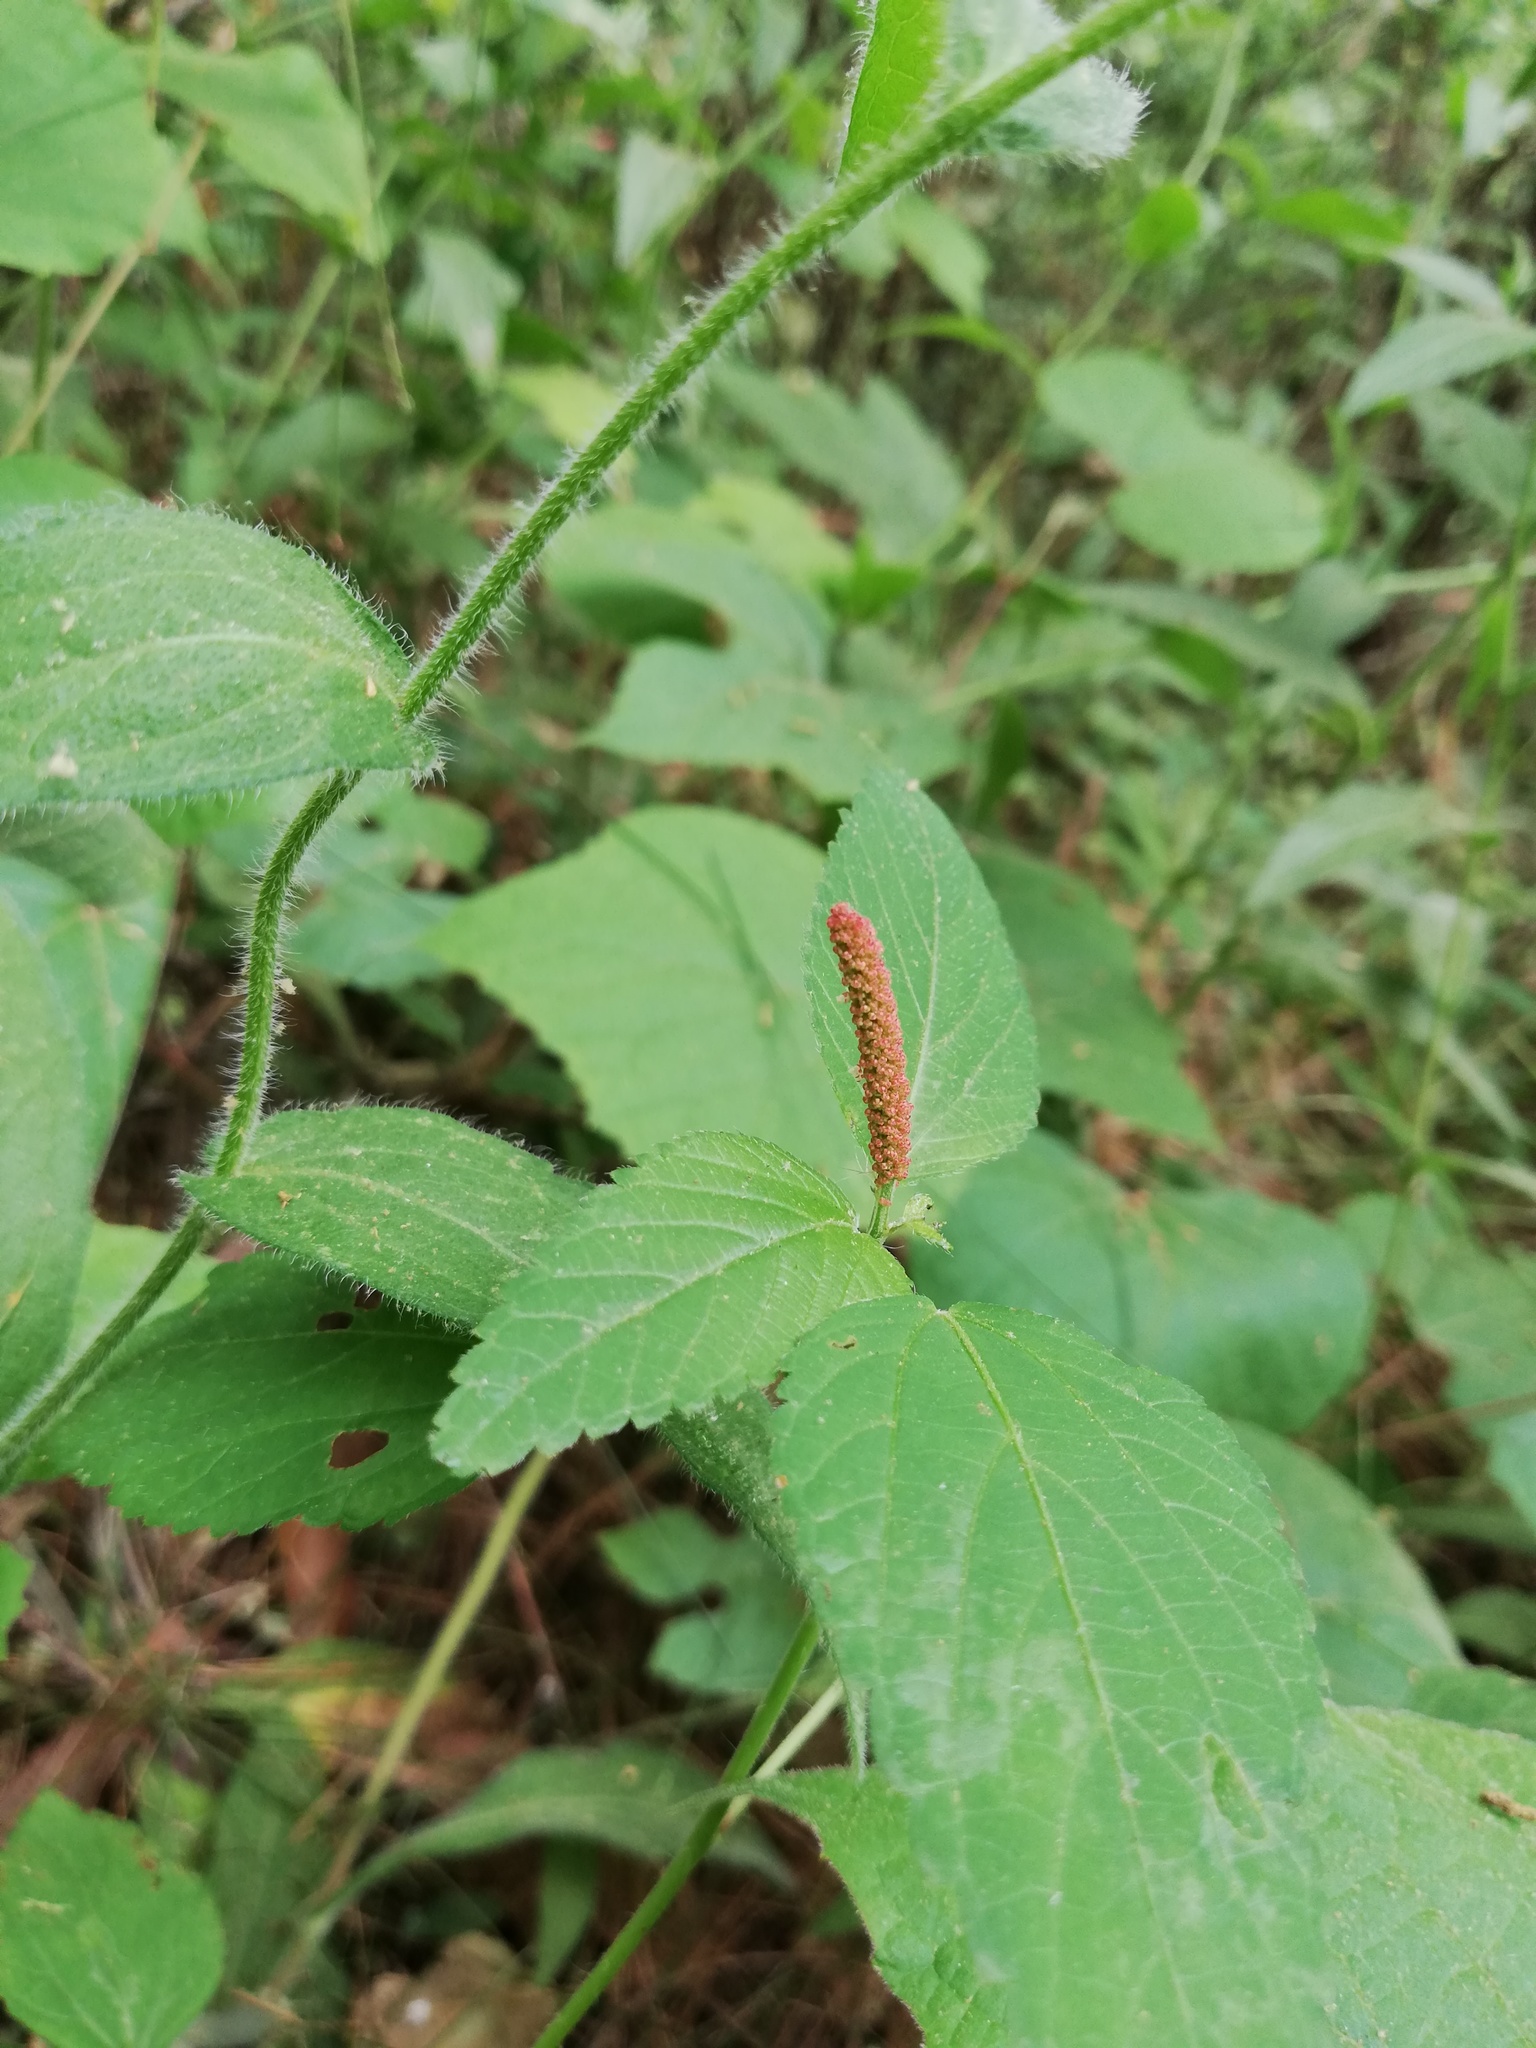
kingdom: Plantae
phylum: Tracheophyta
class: Magnoliopsida
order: Malpighiales
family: Euphorbiaceae
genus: Acalypha
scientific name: Acalypha phleoides
